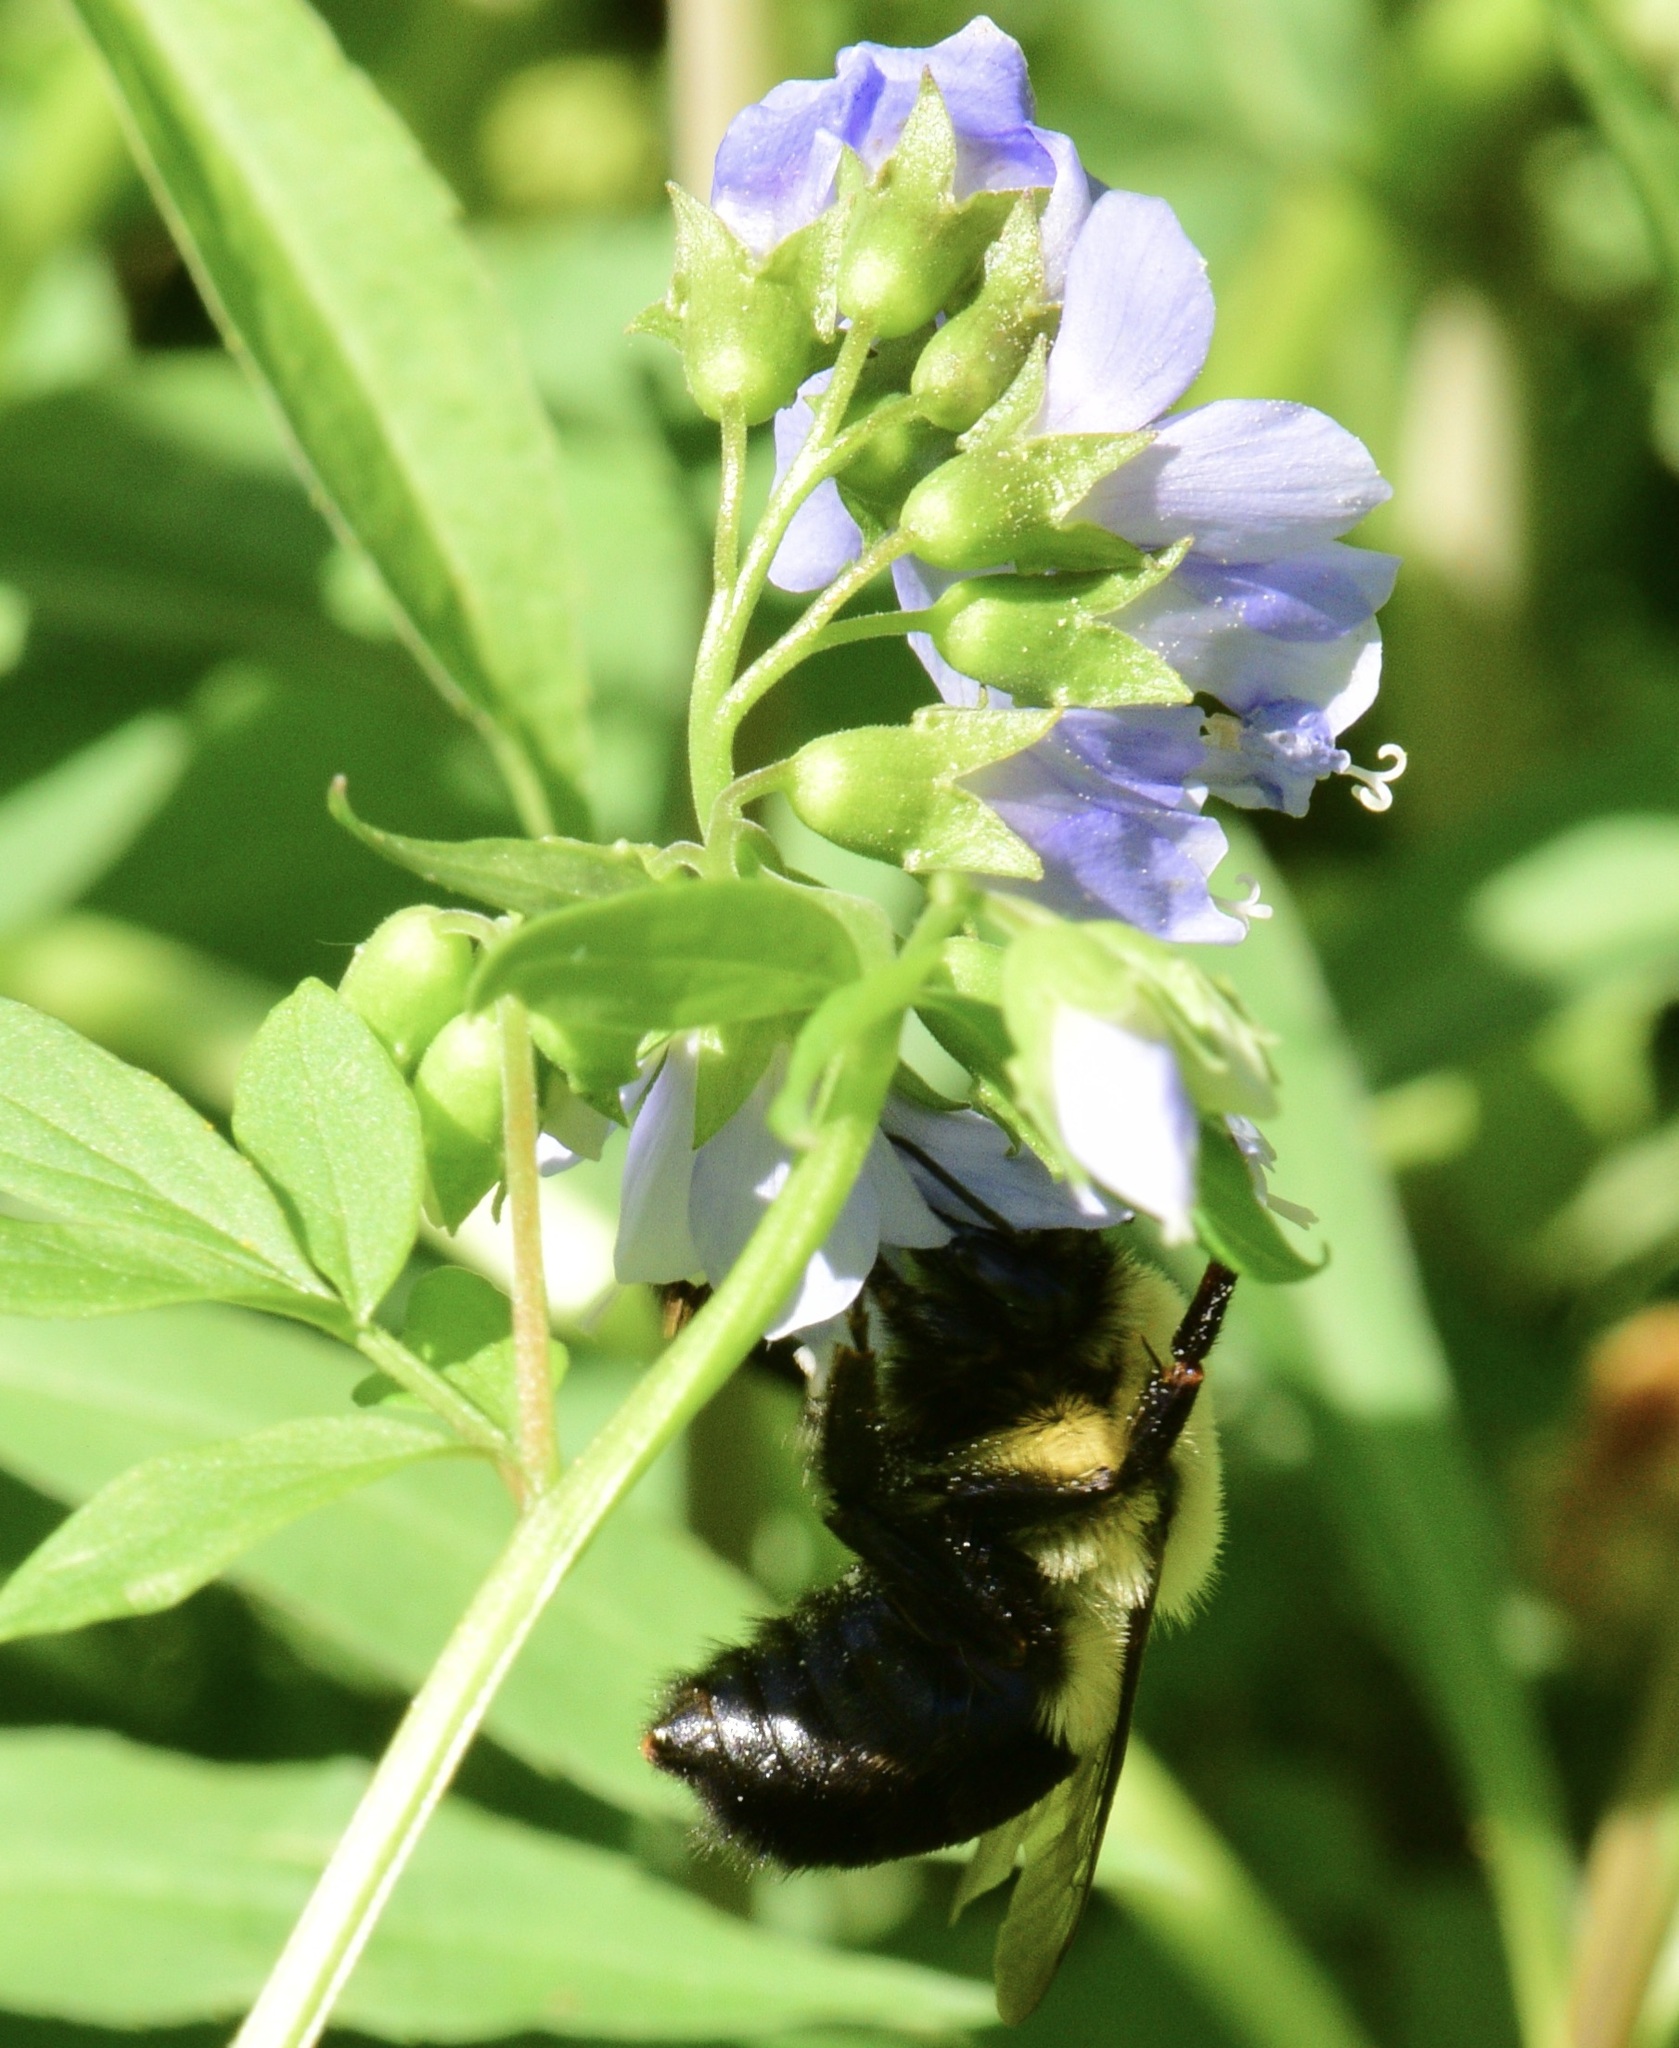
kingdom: Animalia
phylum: Arthropoda
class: Insecta
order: Hymenoptera
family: Apidae
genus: Bombus
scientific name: Bombus impatiens
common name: Common eastern bumble bee
